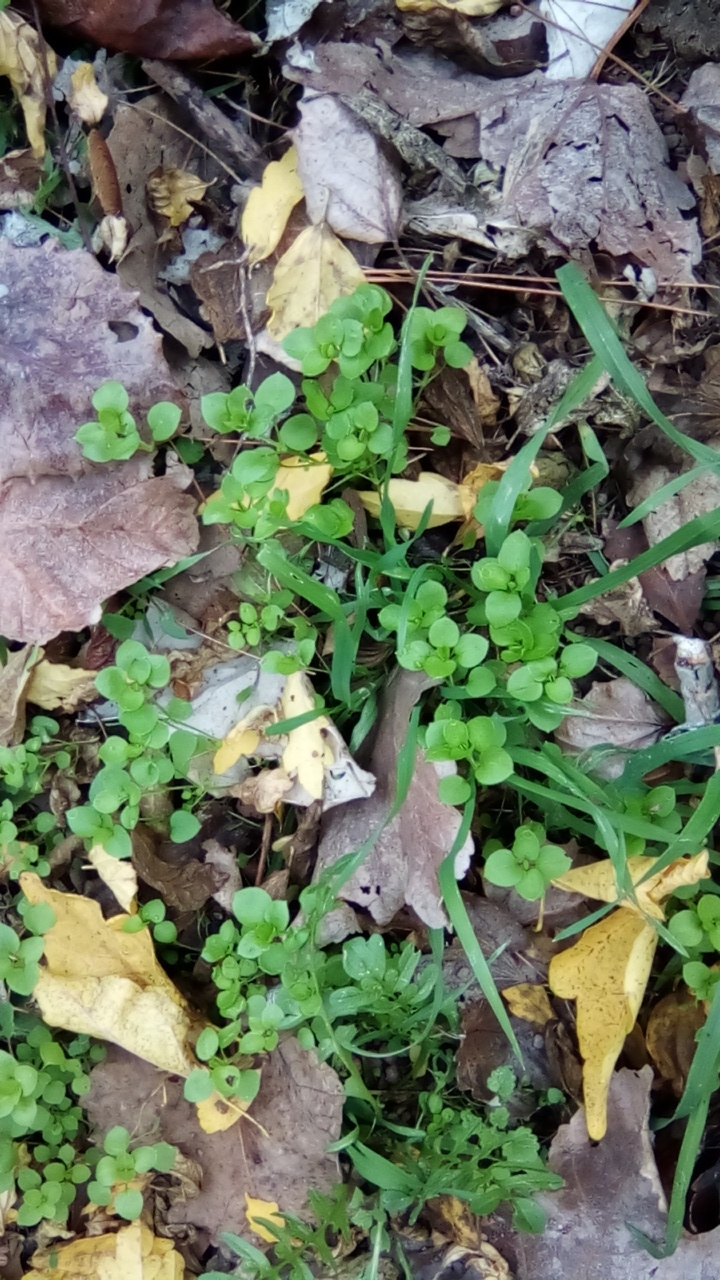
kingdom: Plantae
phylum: Tracheophyta
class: Magnoliopsida
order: Caryophyllales
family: Caryophyllaceae
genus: Stellaria
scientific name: Stellaria media
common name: Common chickweed
